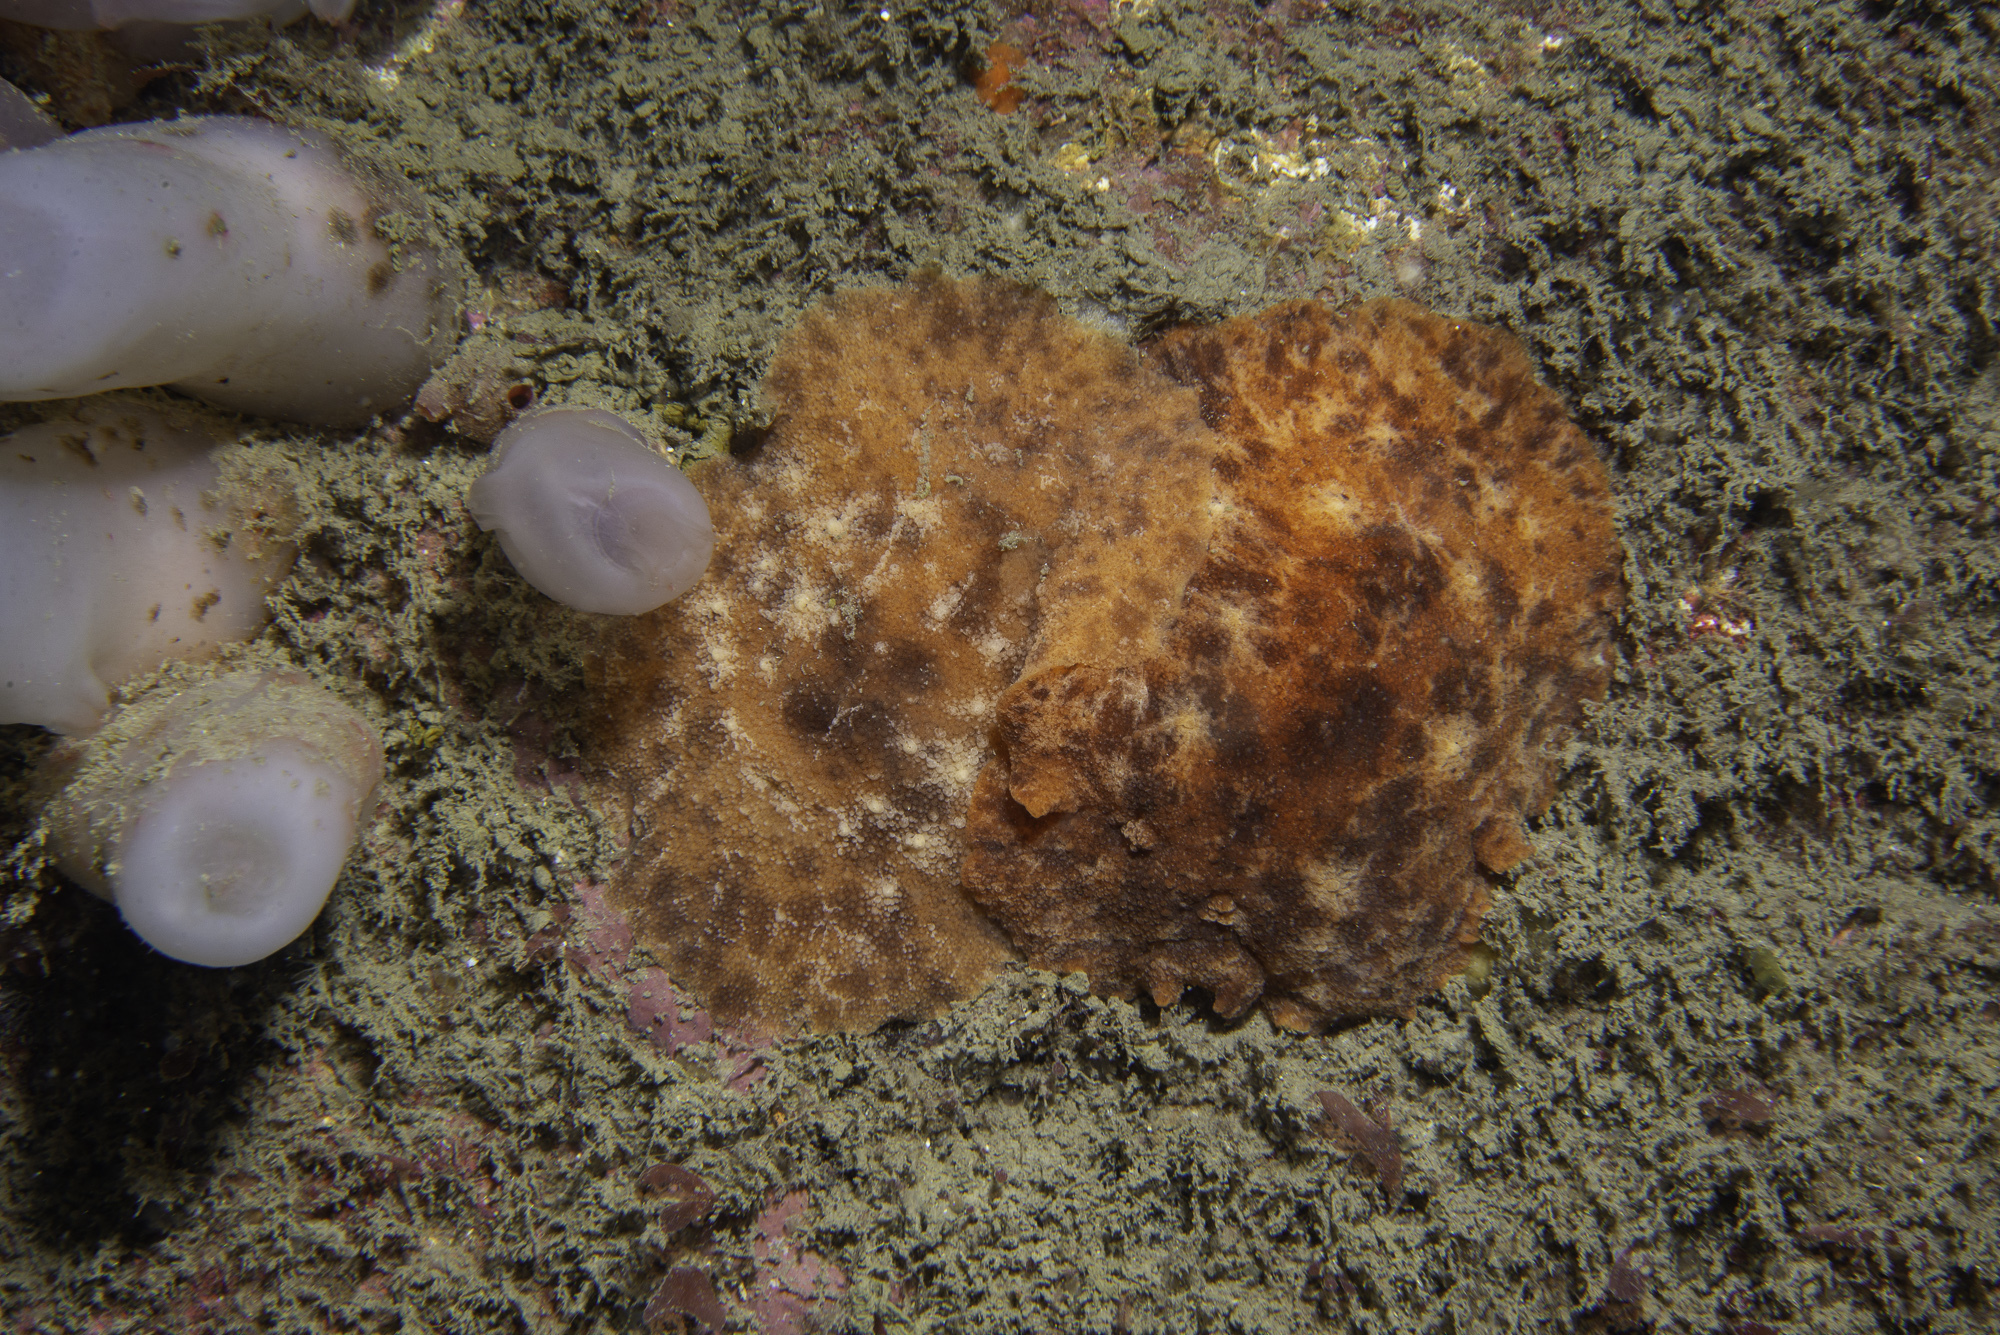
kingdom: Animalia
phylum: Mollusca
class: Gastropoda
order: Nudibranchia
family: Discodorididae
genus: Geitodoris
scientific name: Geitodoris planata
